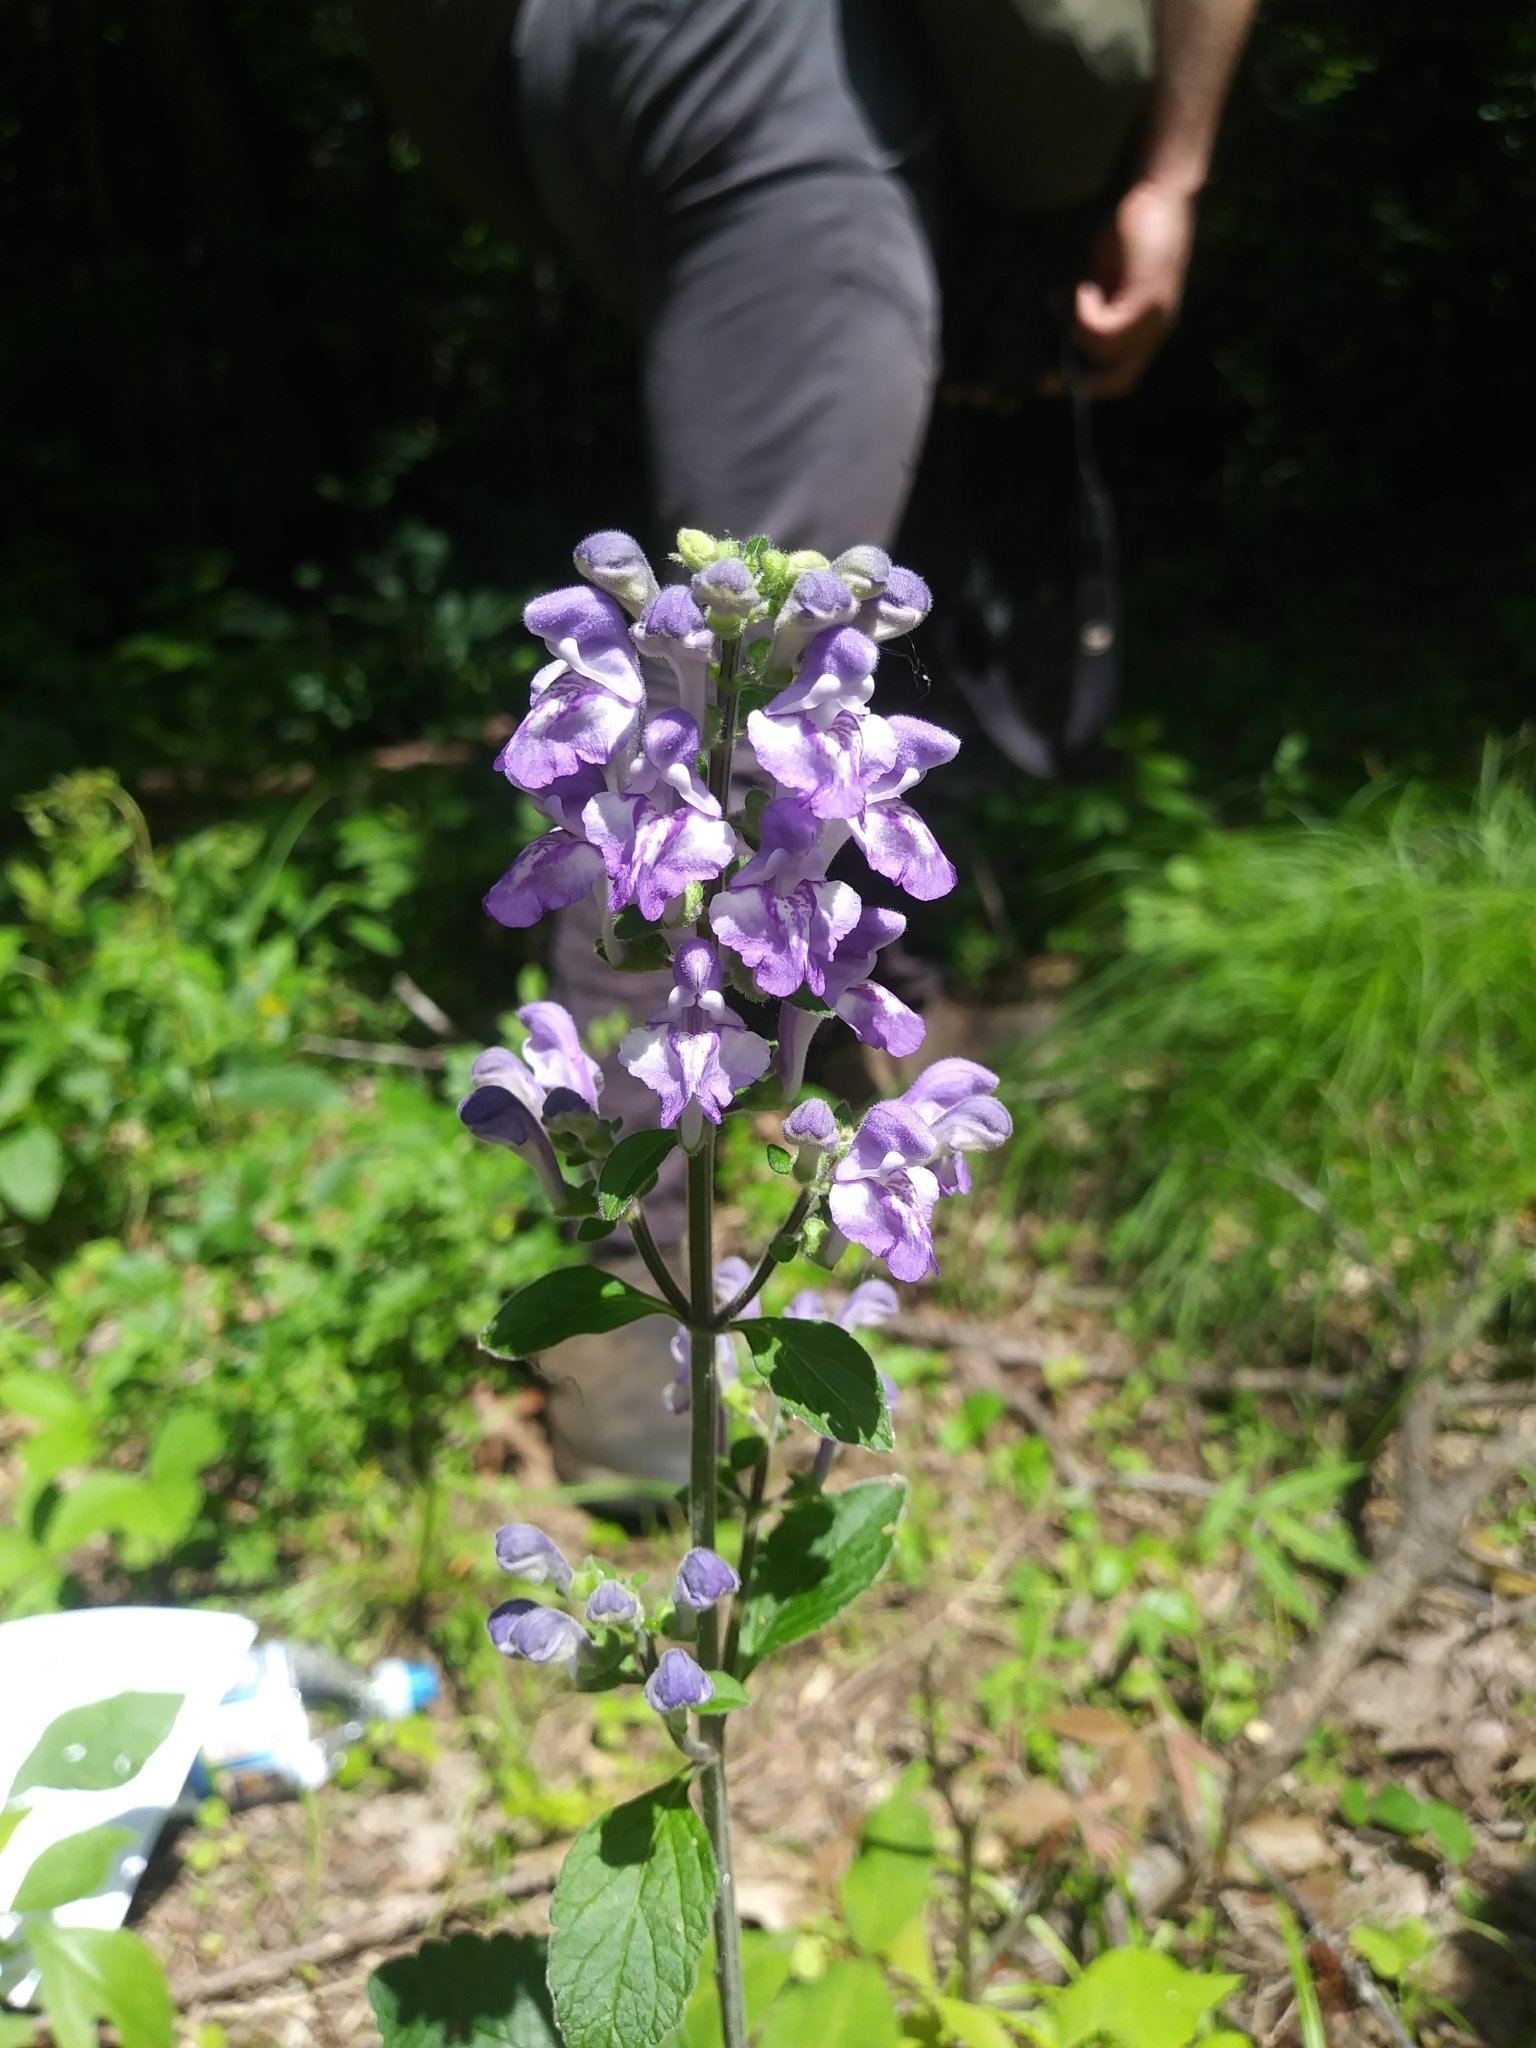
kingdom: Plantae
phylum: Tracheophyta
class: Magnoliopsida
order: Lamiales
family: Lamiaceae
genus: Scutellaria
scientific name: Scutellaria elliptica
